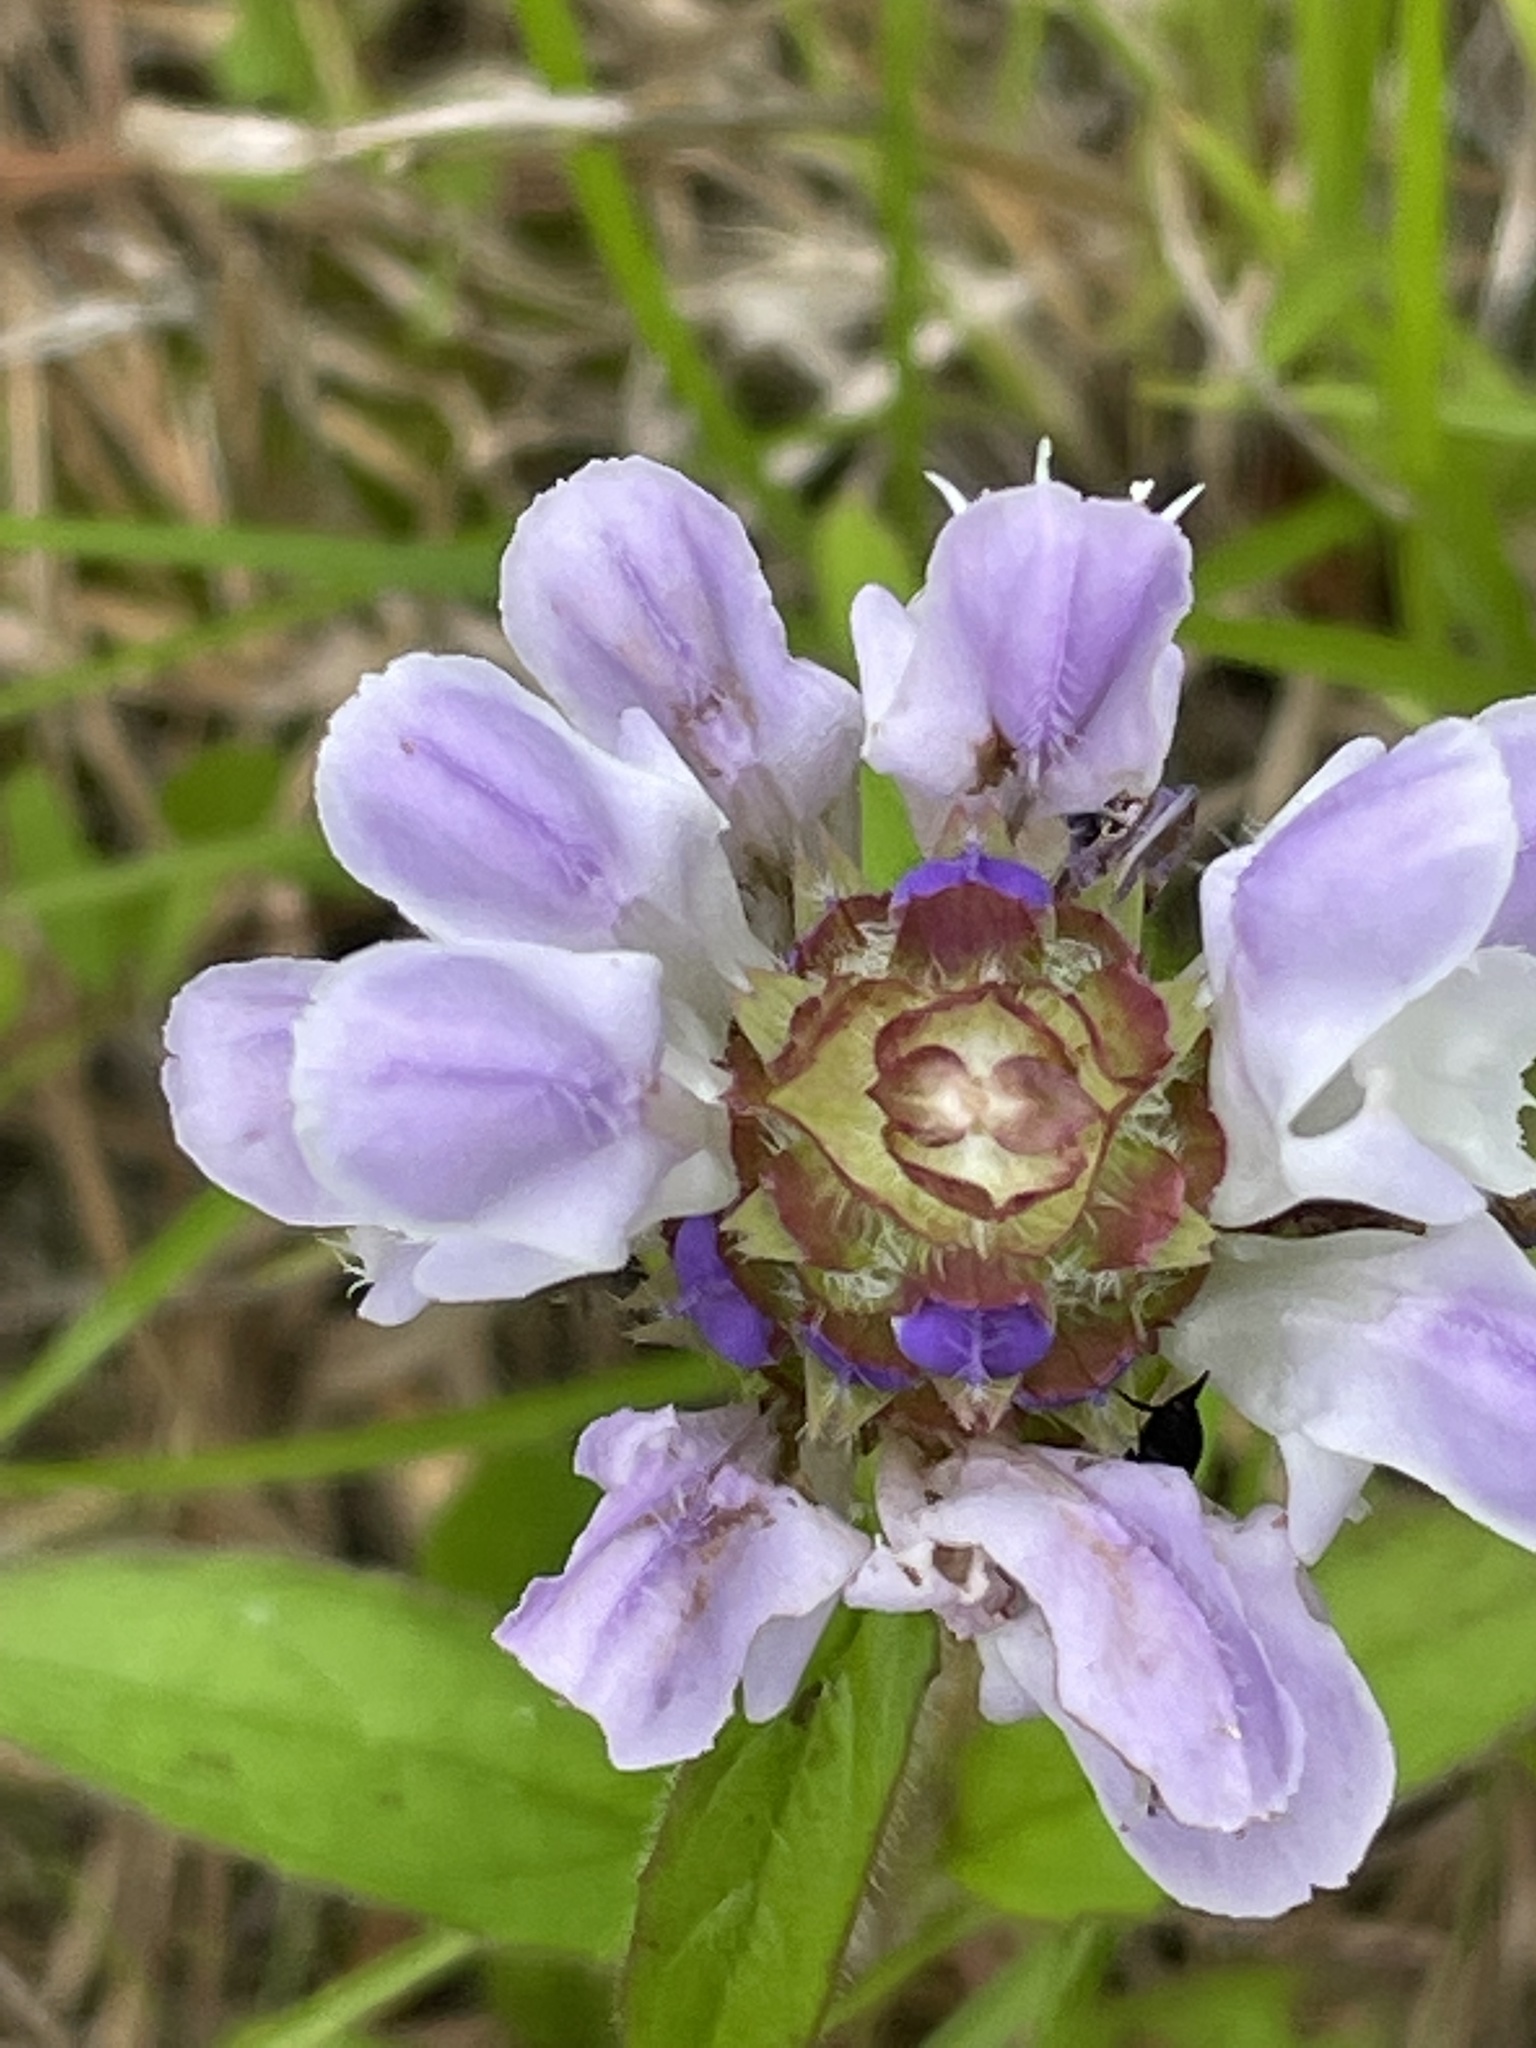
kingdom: Plantae
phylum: Tracheophyta
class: Magnoliopsida
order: Lamiales
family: Lamiaceae
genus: Prunella
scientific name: Prunella vulgaris
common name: Heal-all
